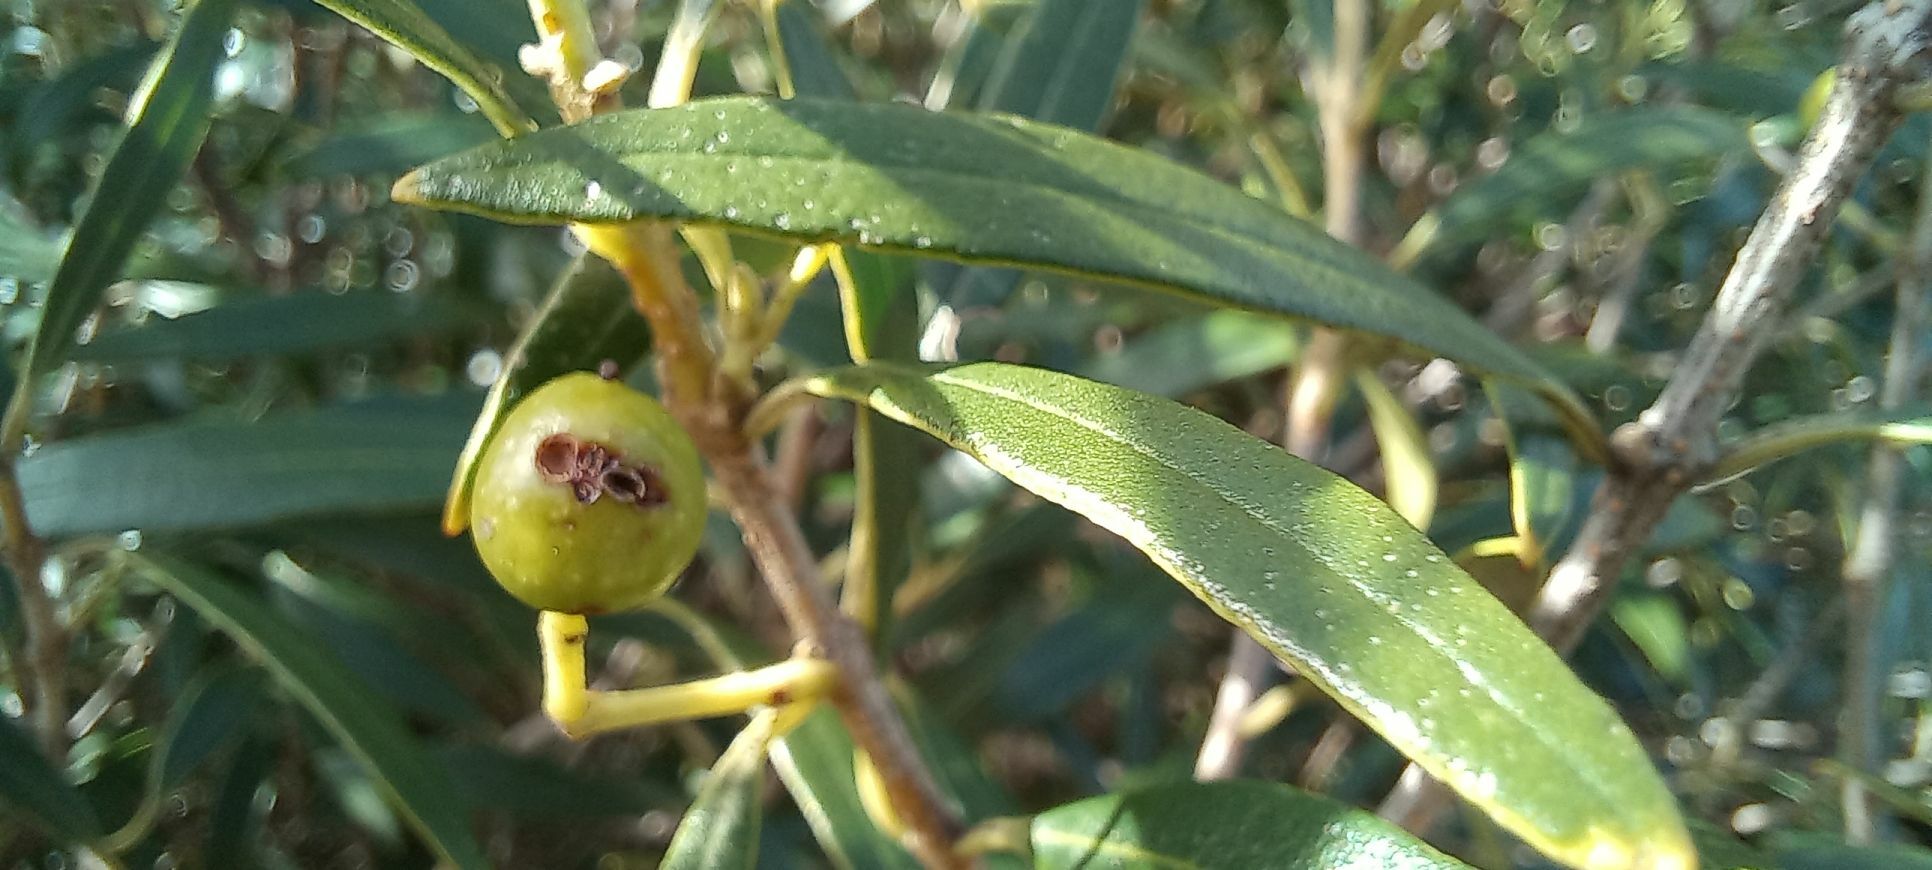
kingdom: Plantae
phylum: Tracheophyta
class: Magnoliopsida
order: Lamiales
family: Oleaceae
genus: Olea
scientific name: Olea europaea
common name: Olive
